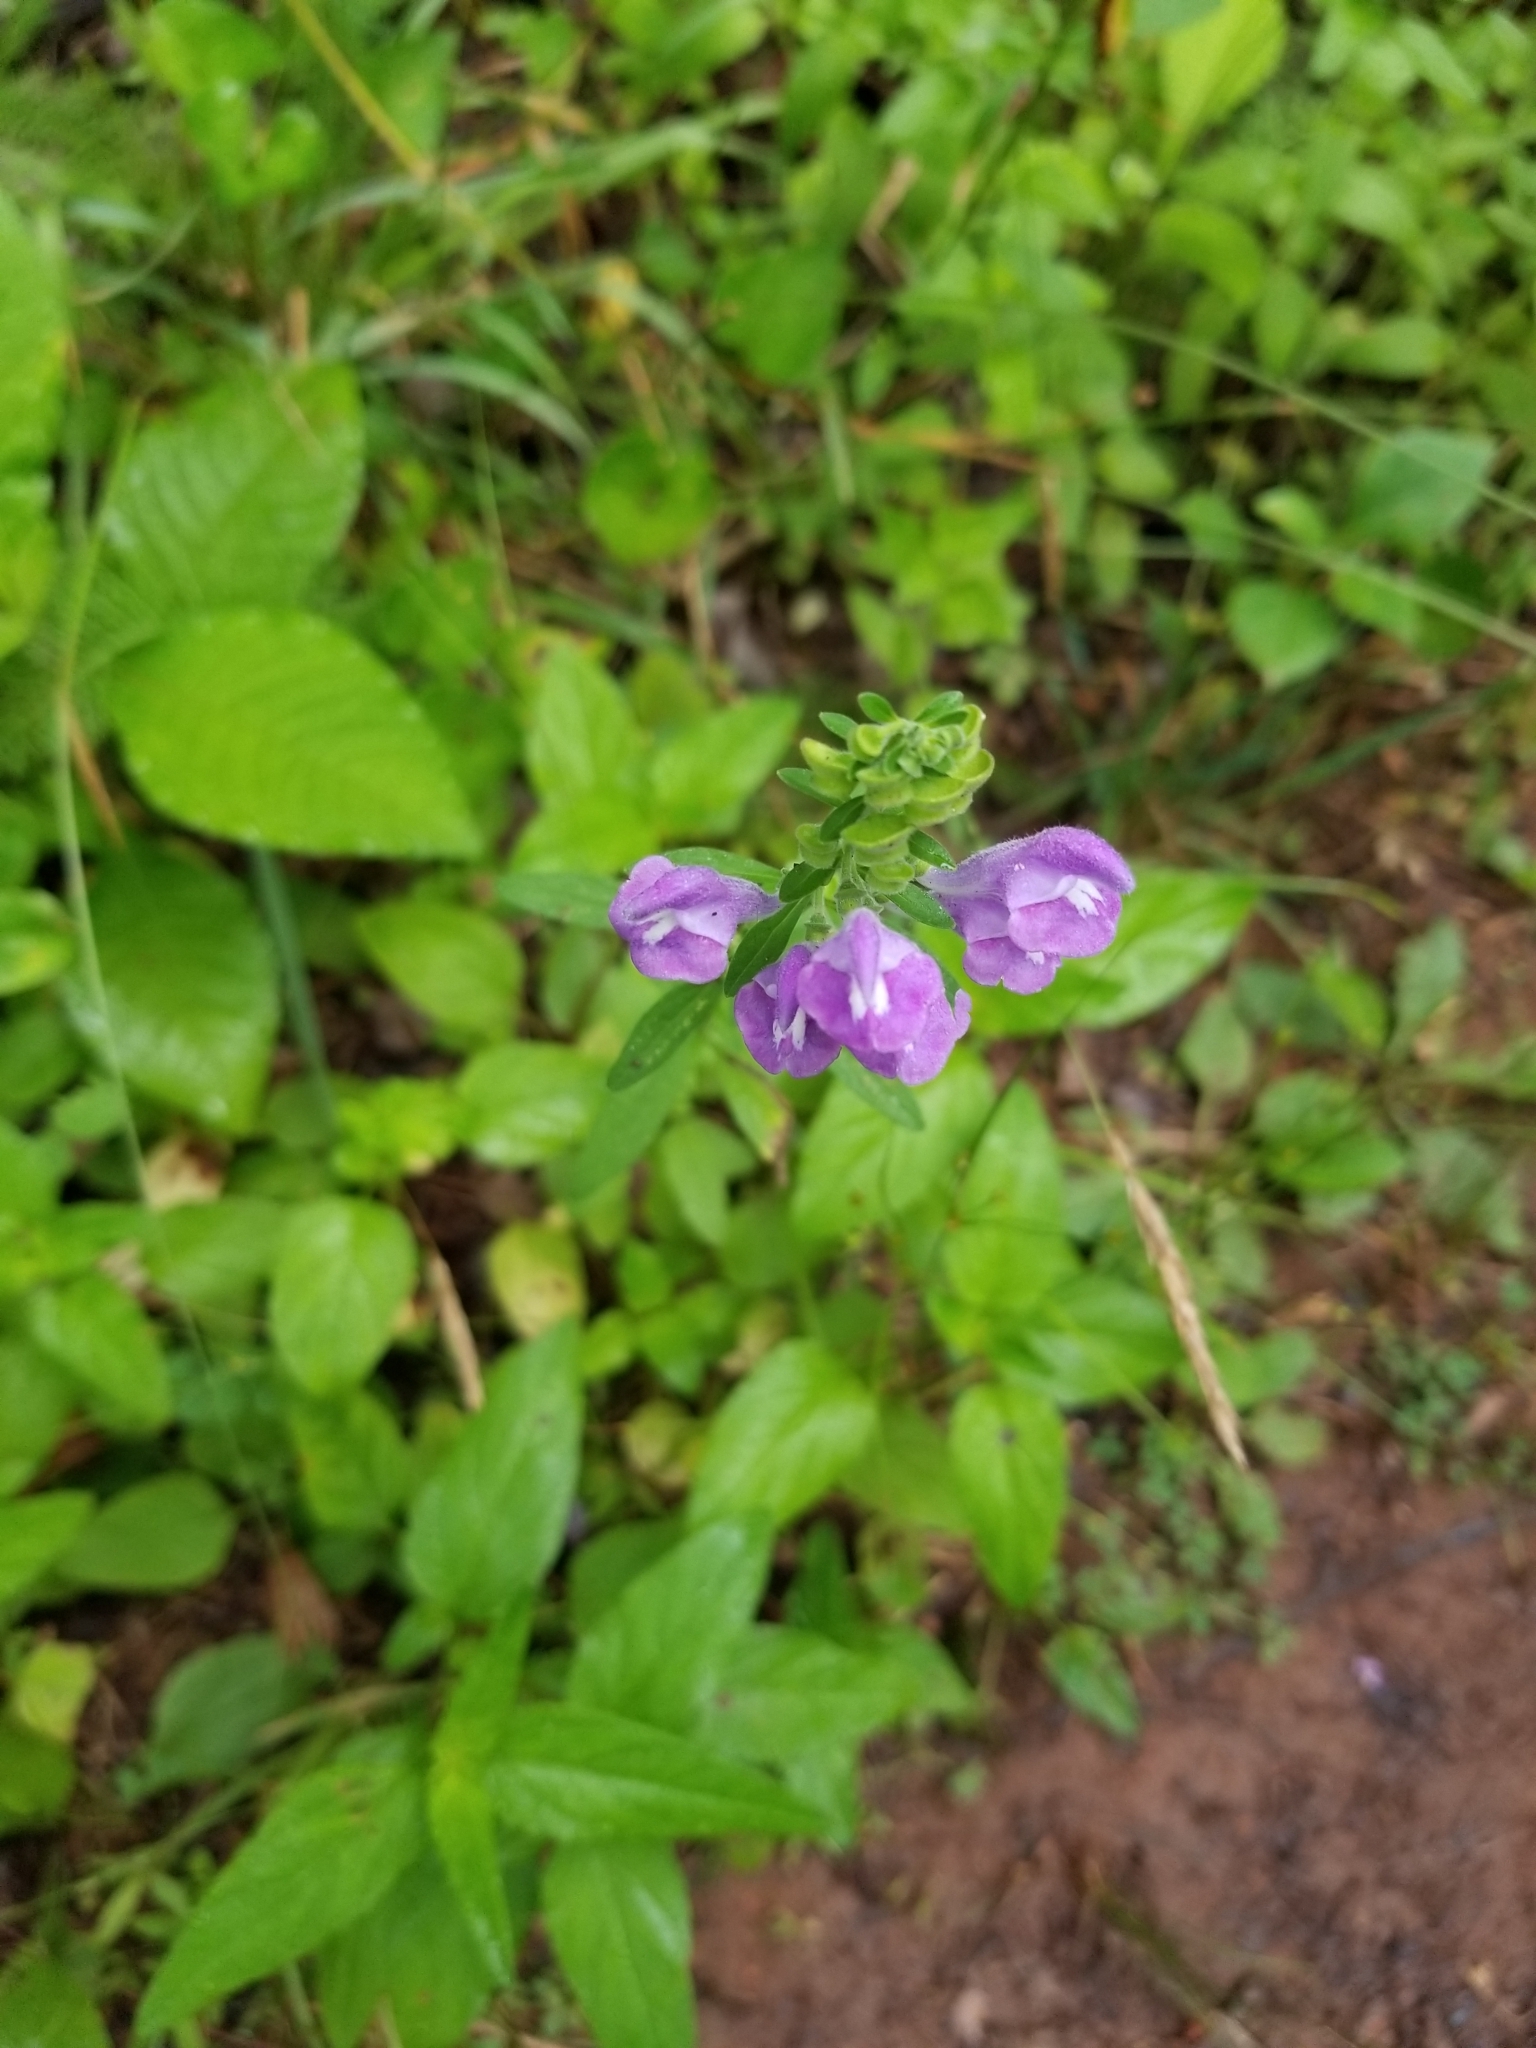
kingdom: Plantae
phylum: Tracheophyta
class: Magnoliopsida
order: Lamiales
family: Lamiaceae
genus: Scutellaria
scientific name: Scutellaria integrifolia
